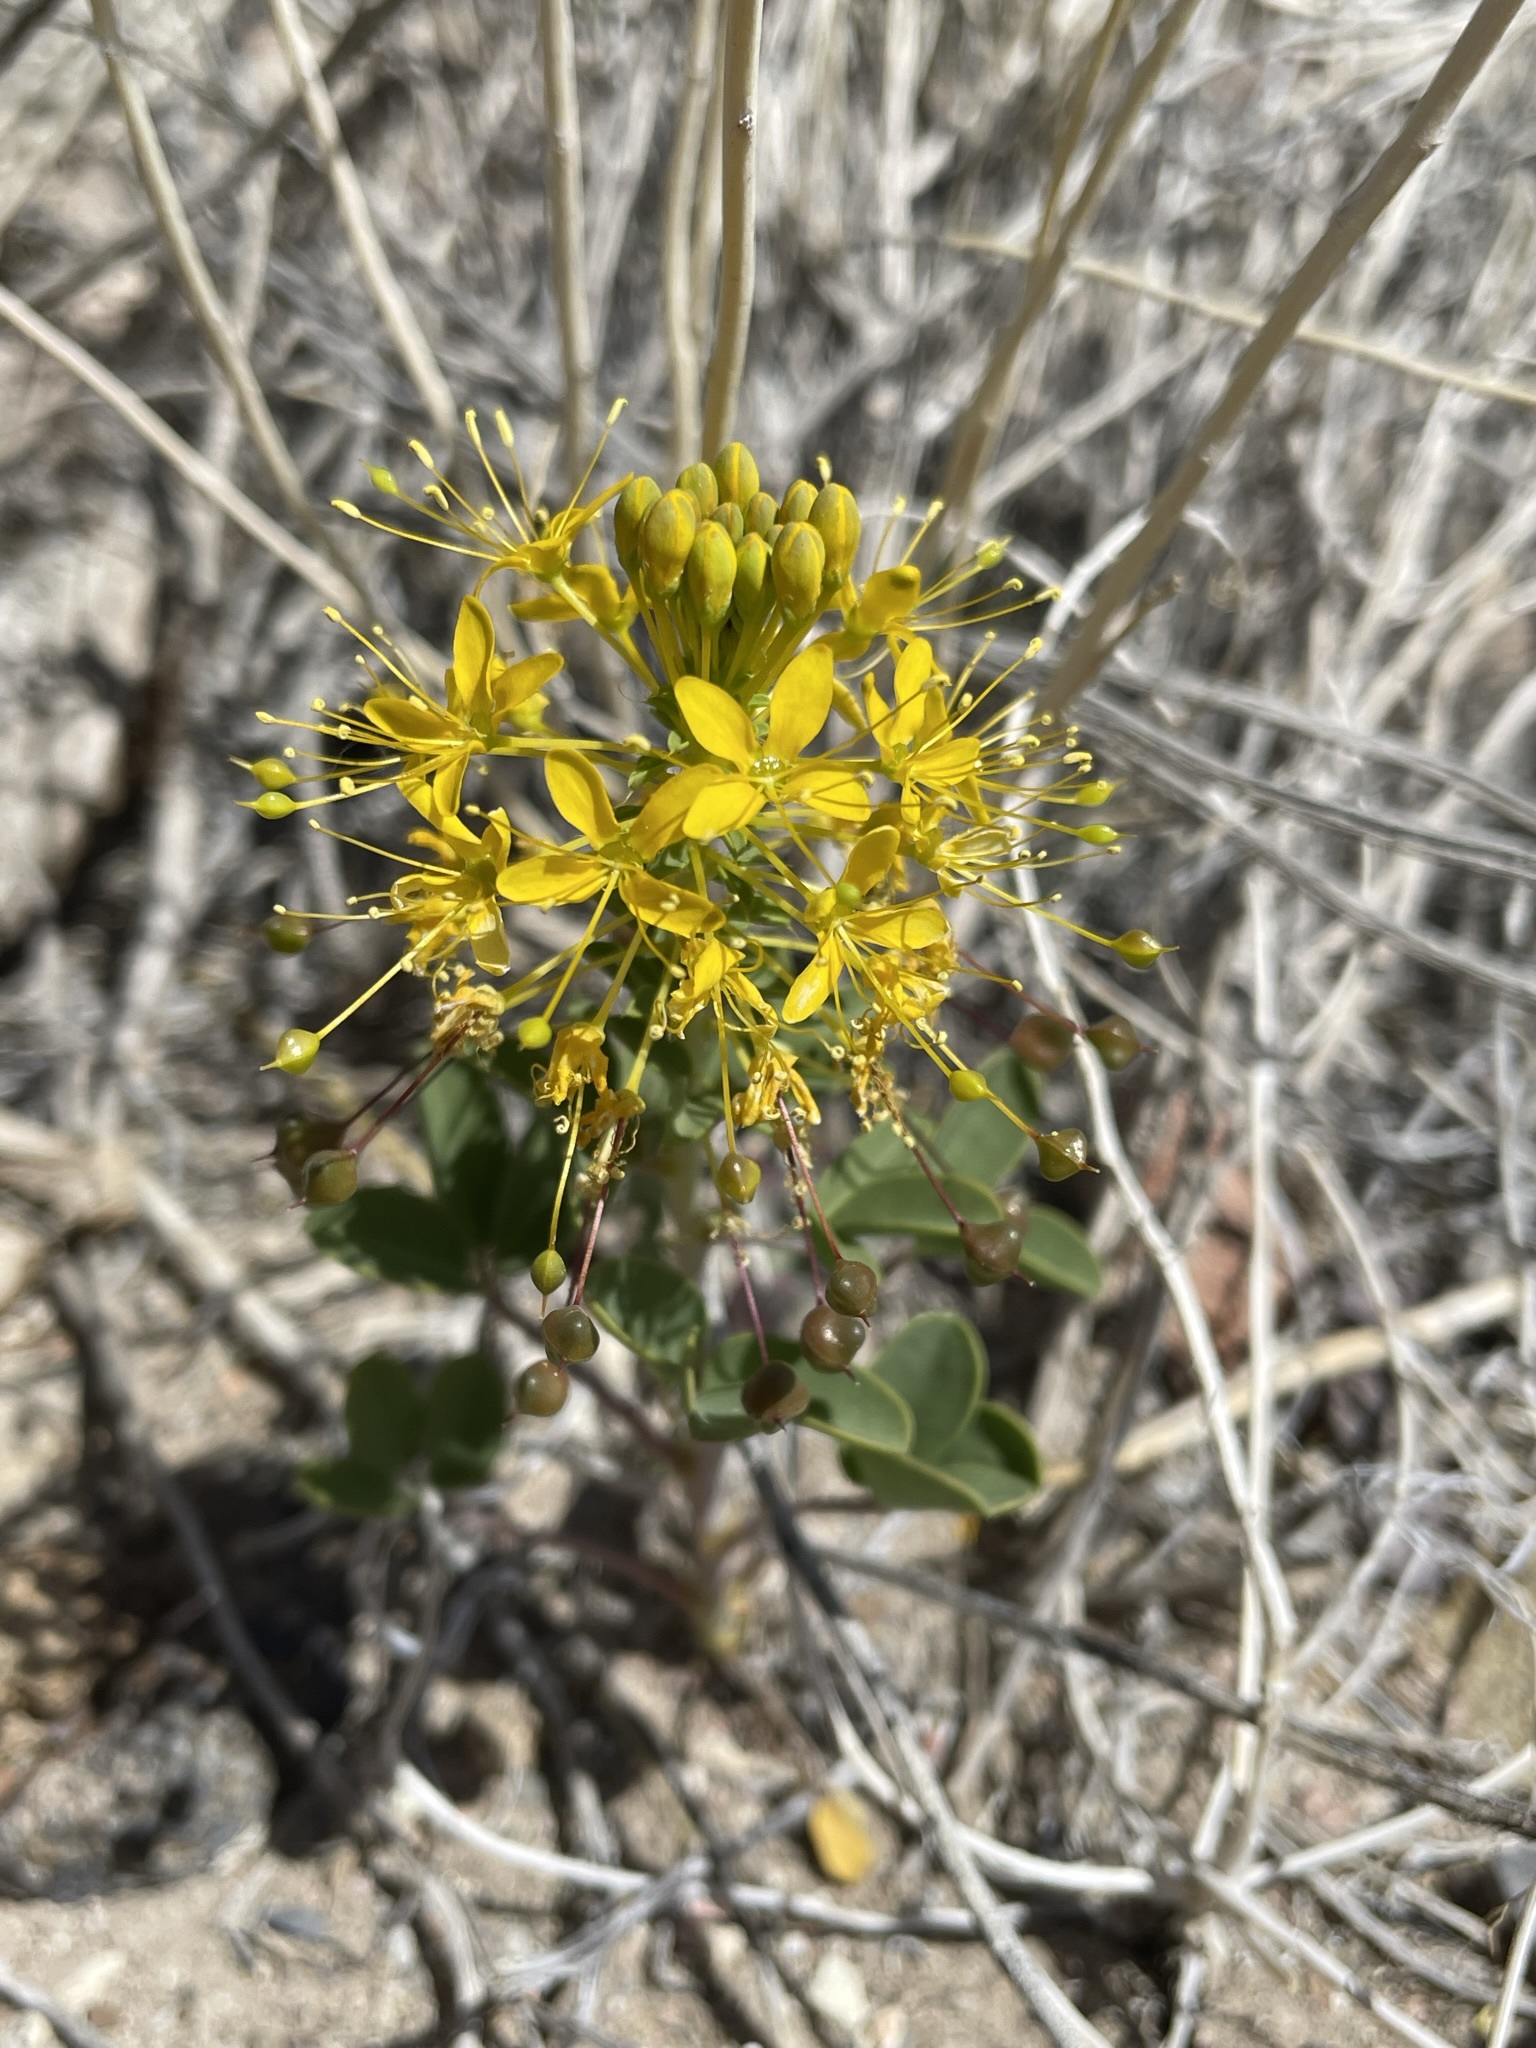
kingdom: Plantae
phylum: Tracheophyta
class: Magnoliopsida
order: Brassicales
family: Cleomaceae
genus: Cleomella
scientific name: Cleomella hillmanii
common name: Desert stinkweed
